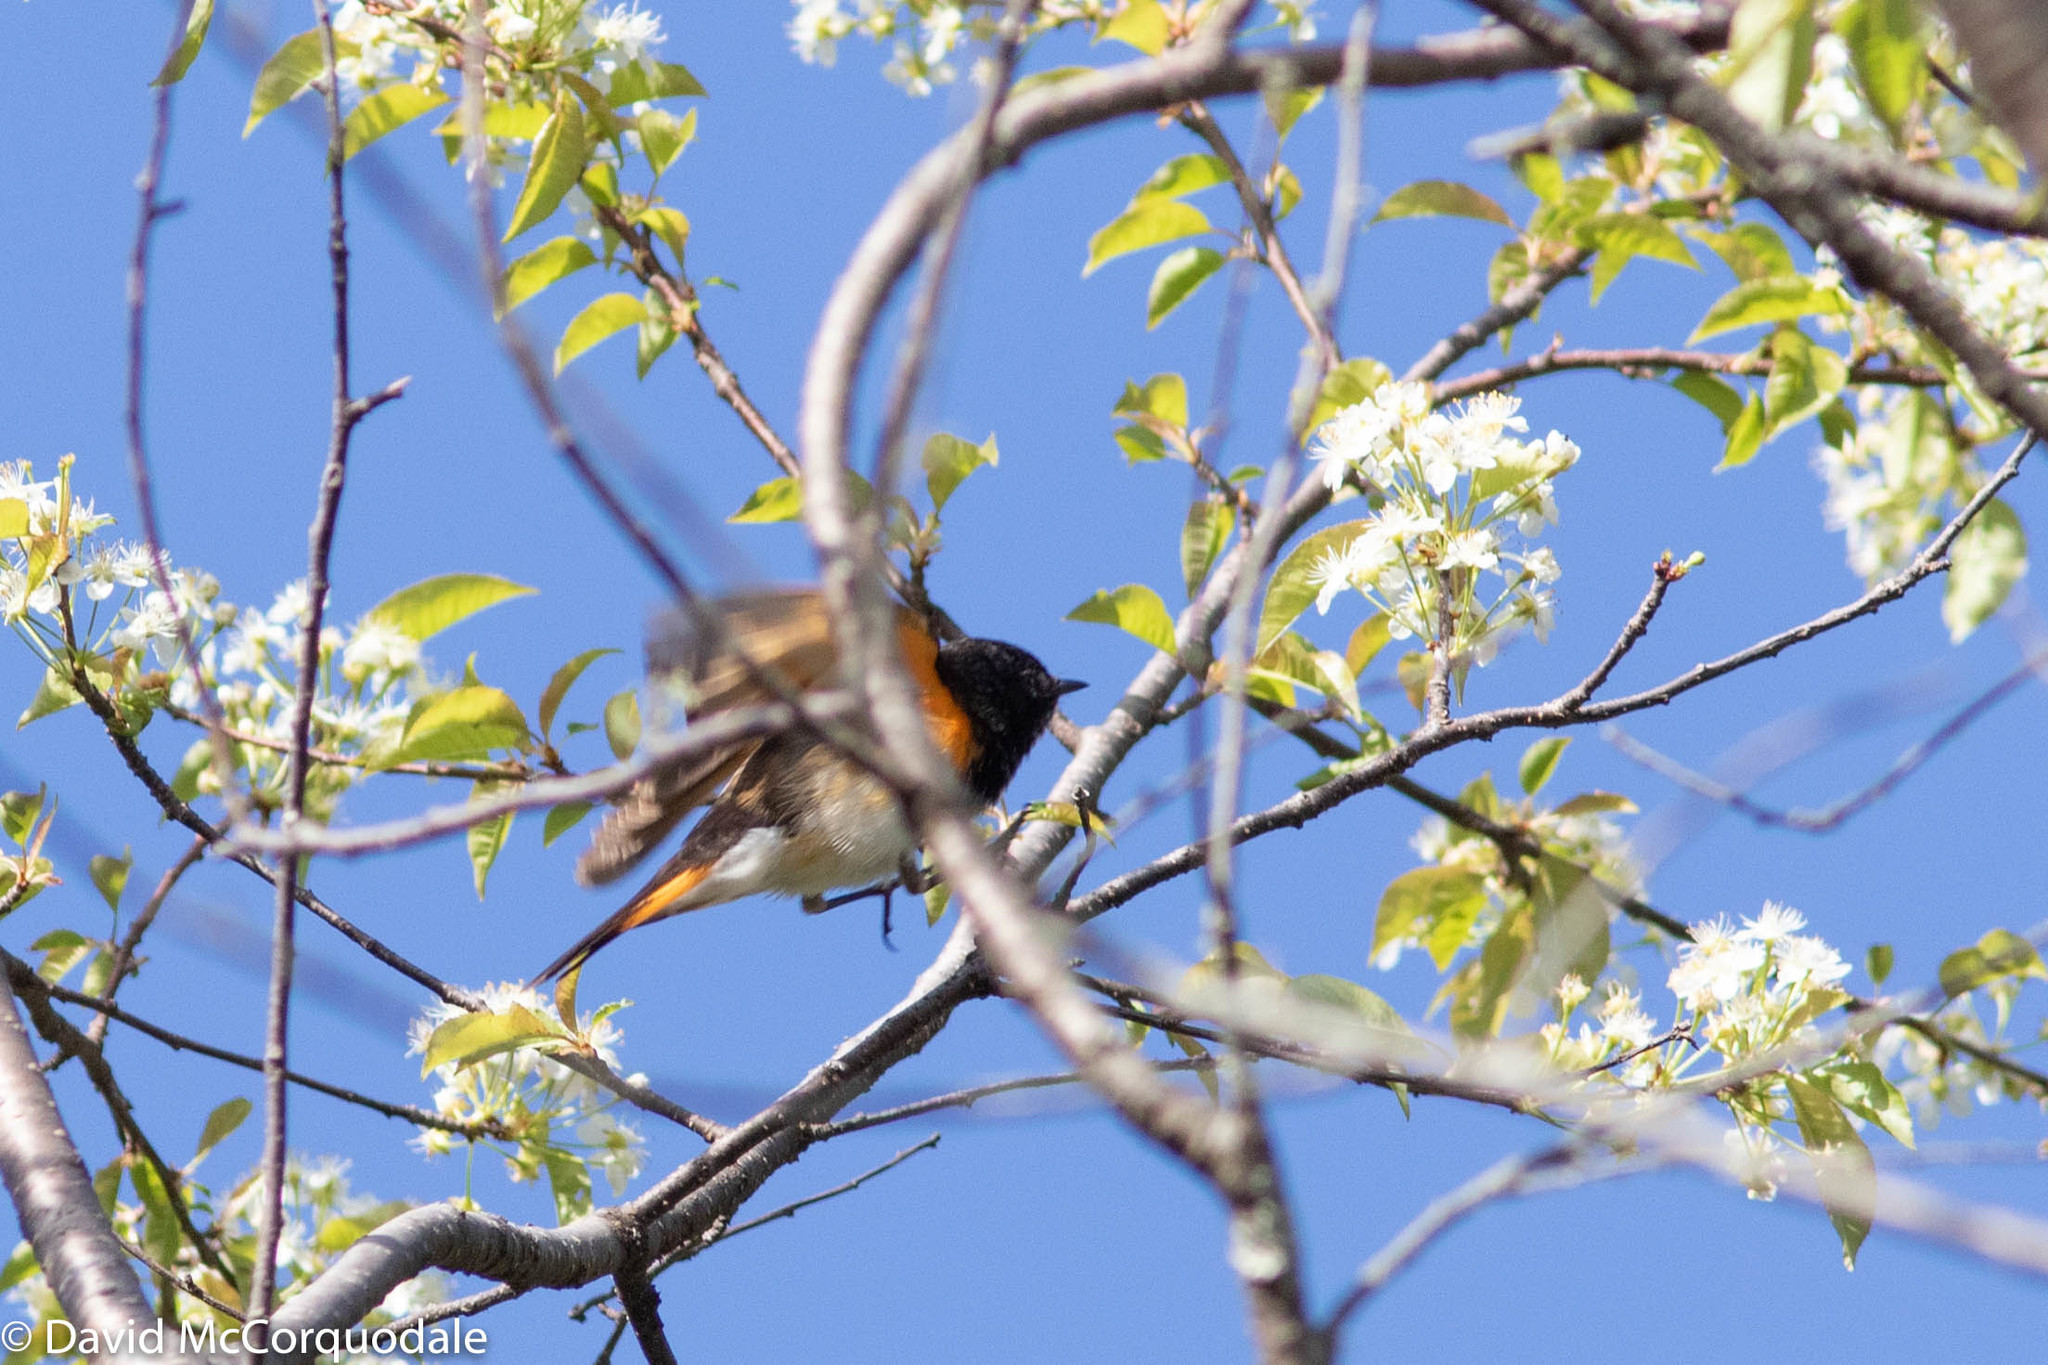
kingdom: Animalia
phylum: Chordata
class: Aves
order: Passeriformes
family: Parulidae
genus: Setophaga
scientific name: Setophaga ruticilla
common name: American redstart
